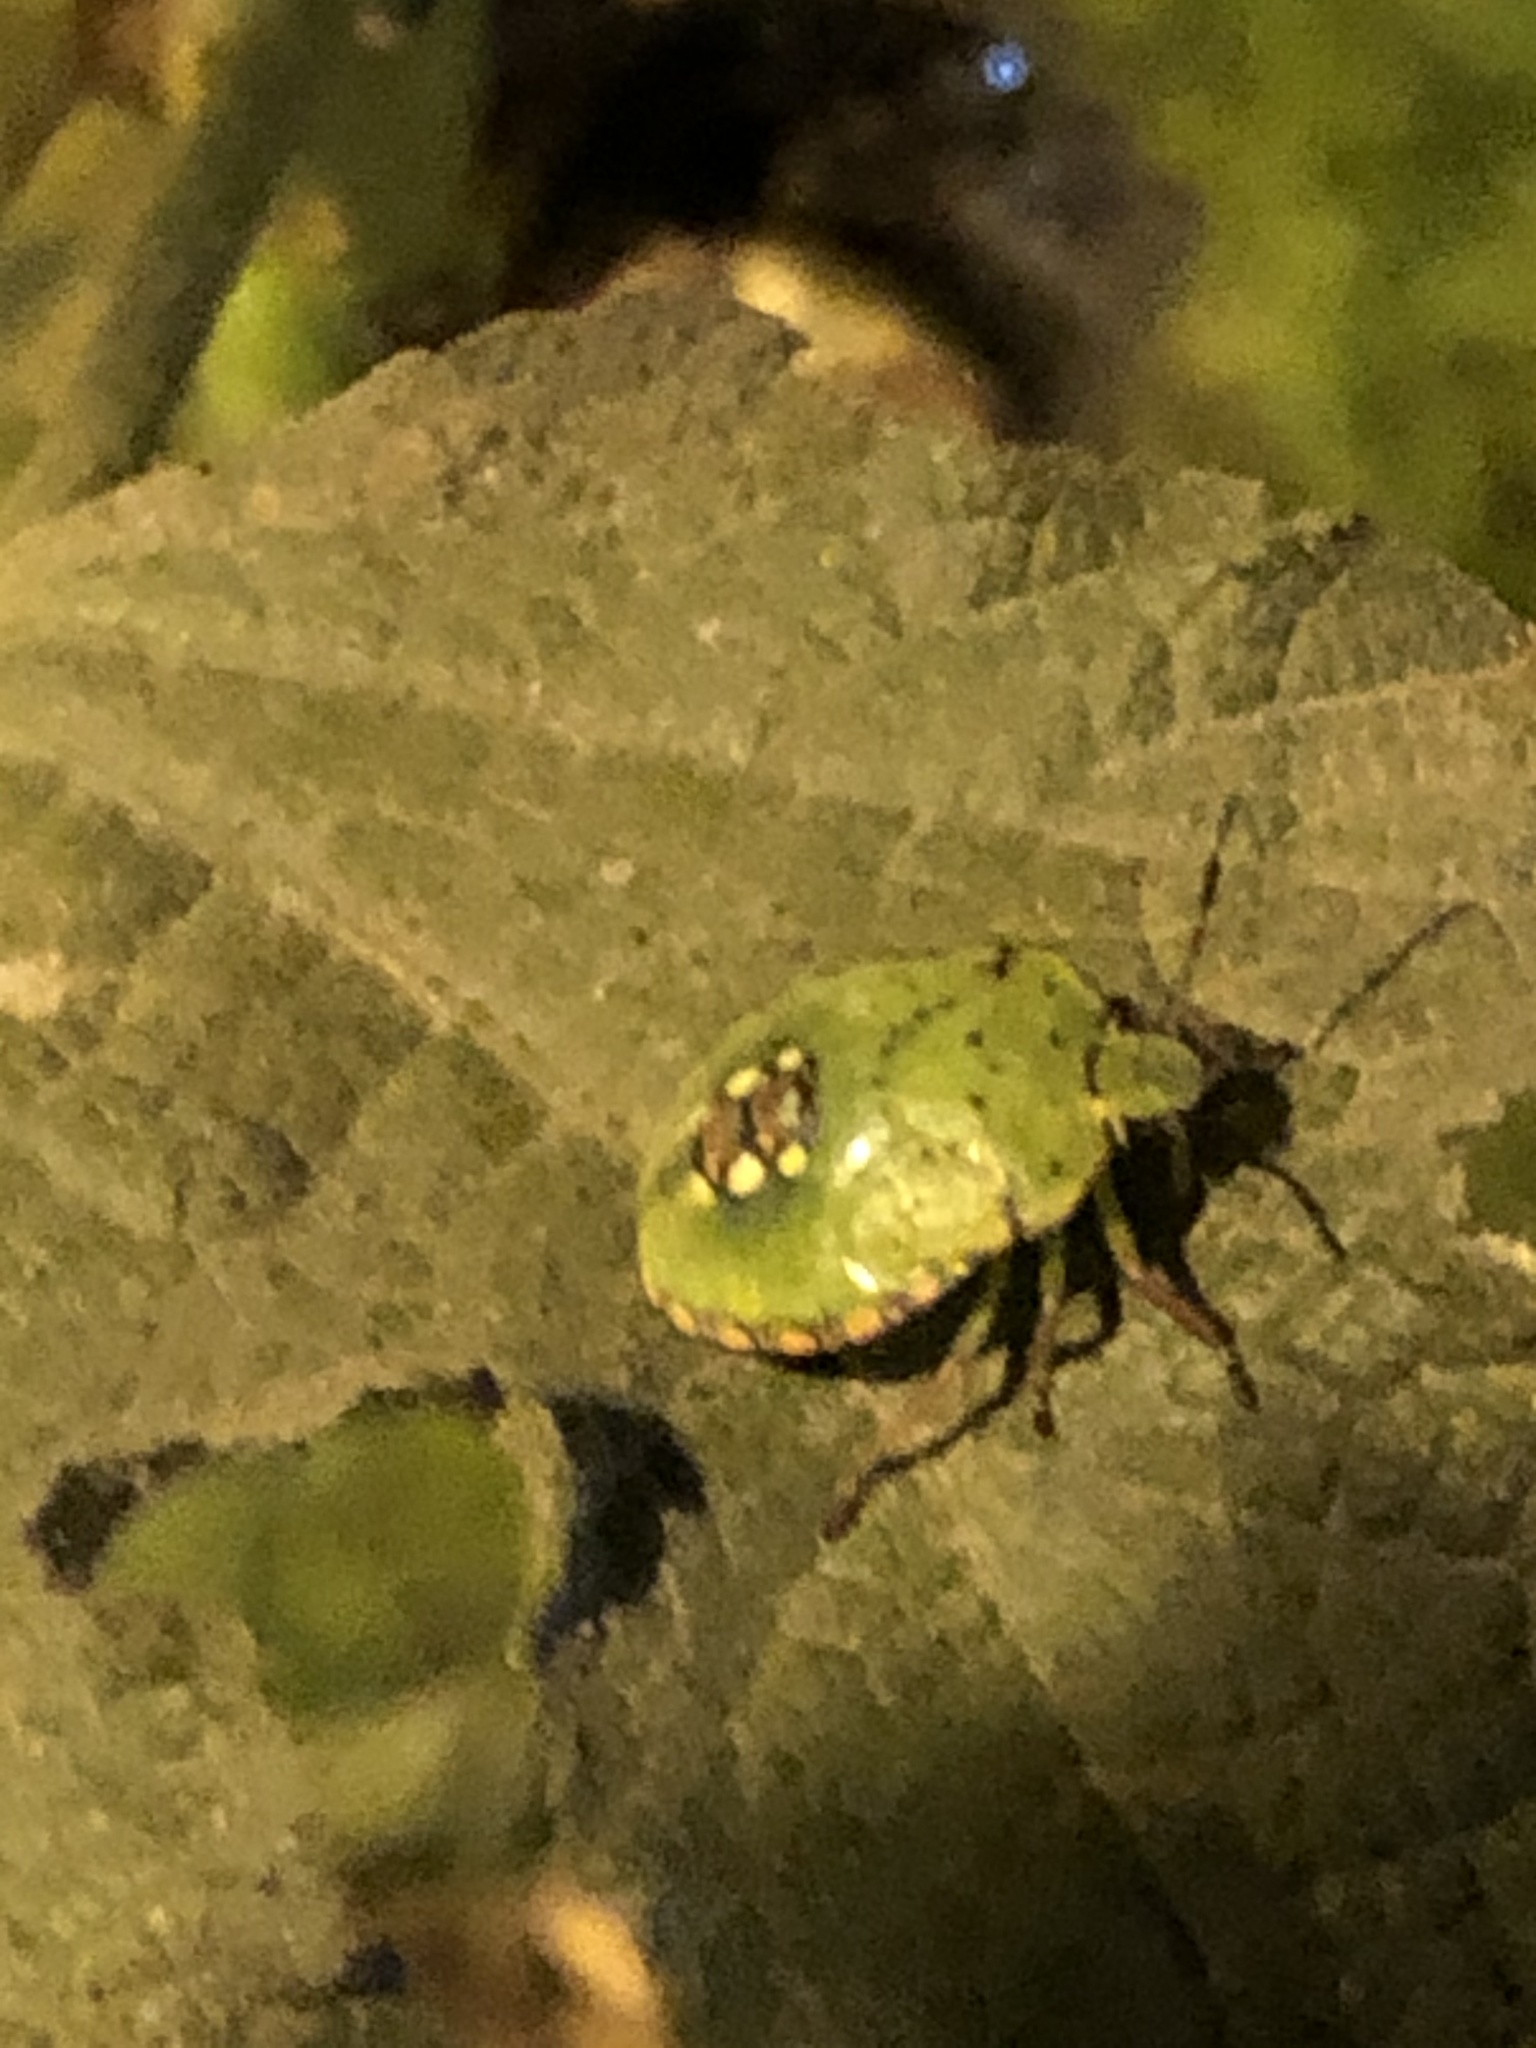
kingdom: Animalia
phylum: Arthropoda
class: Insecta
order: Hemiptera
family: Pentatomidae
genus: Nezara
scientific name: Nezara viridula
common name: Southern green stink bug
